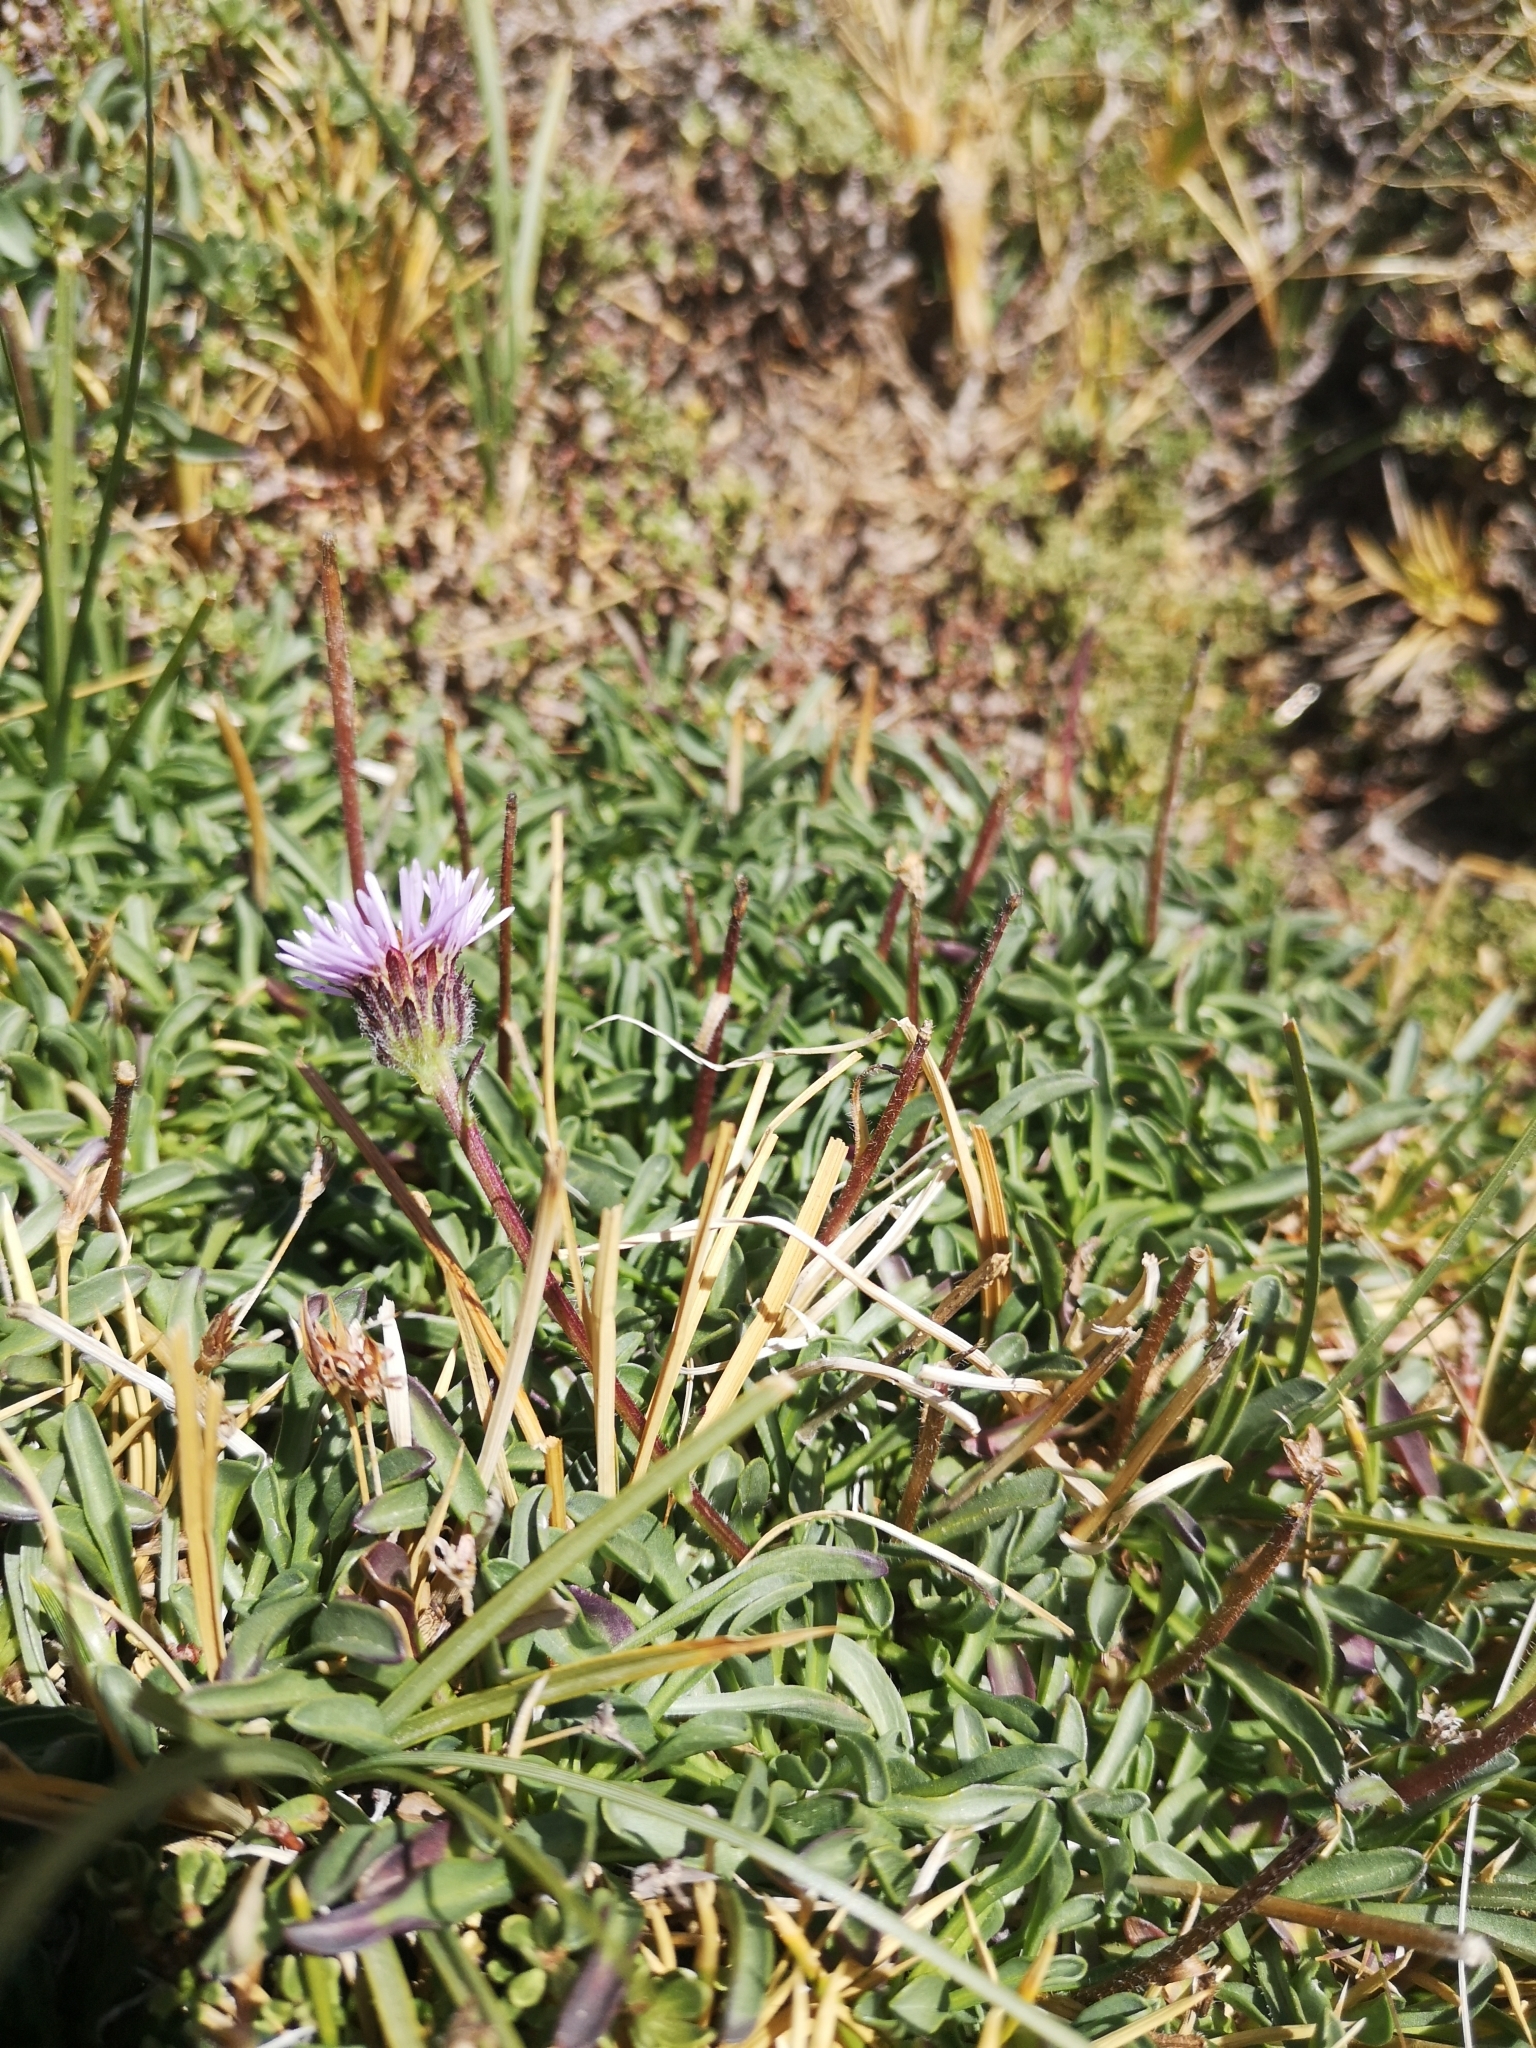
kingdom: Plantae
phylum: Tracheophyta
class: Magnoliopsida
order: Asterales
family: Asteraceae
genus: Erigeron
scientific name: Erigeron andicola
